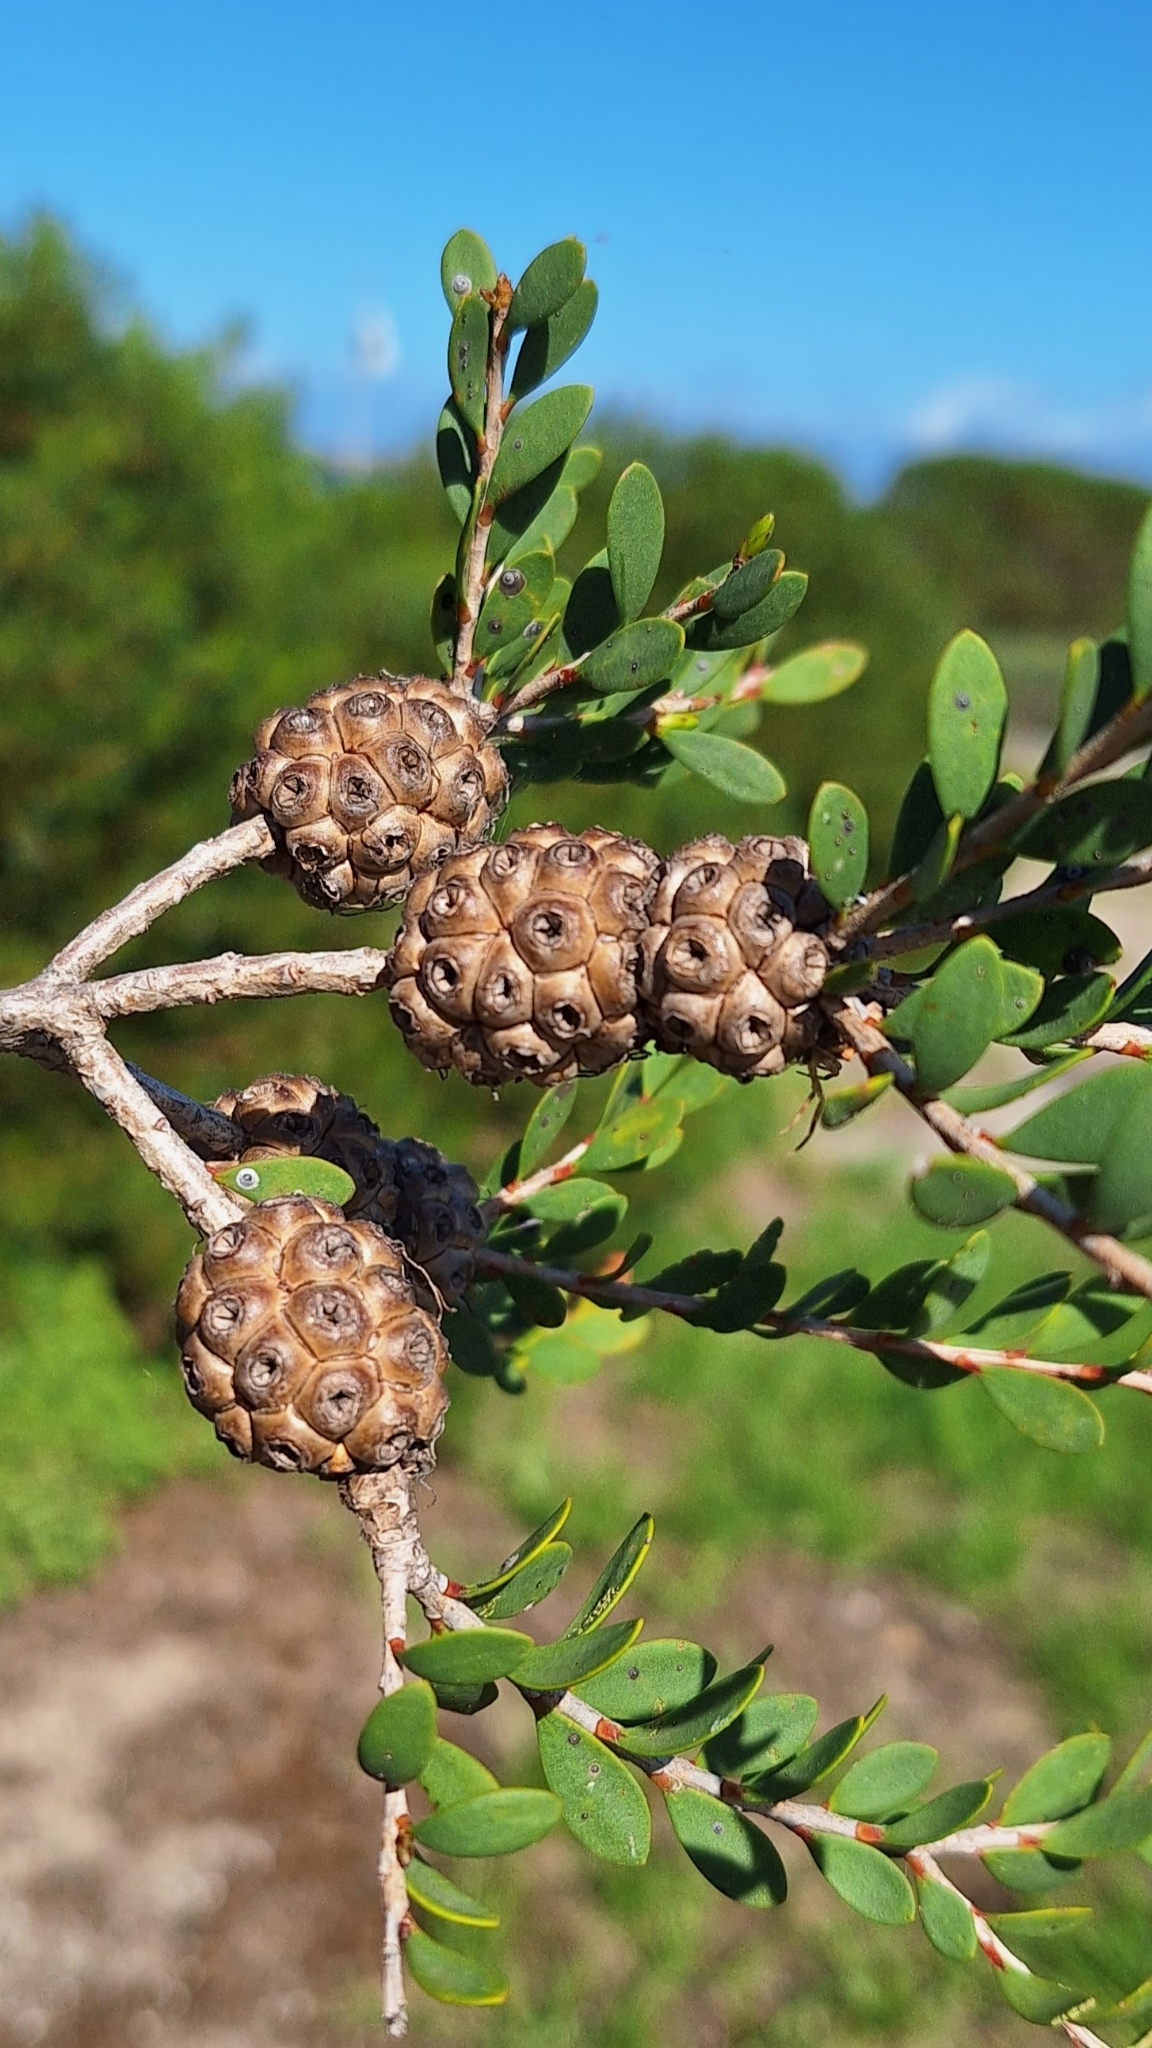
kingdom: Plantae
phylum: Tracheophyta
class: Magnoliopsida
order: Myrtales
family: Myrtaceae
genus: Melaleuca
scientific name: Melaleuca nesophila
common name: Mauve honey myrtle
